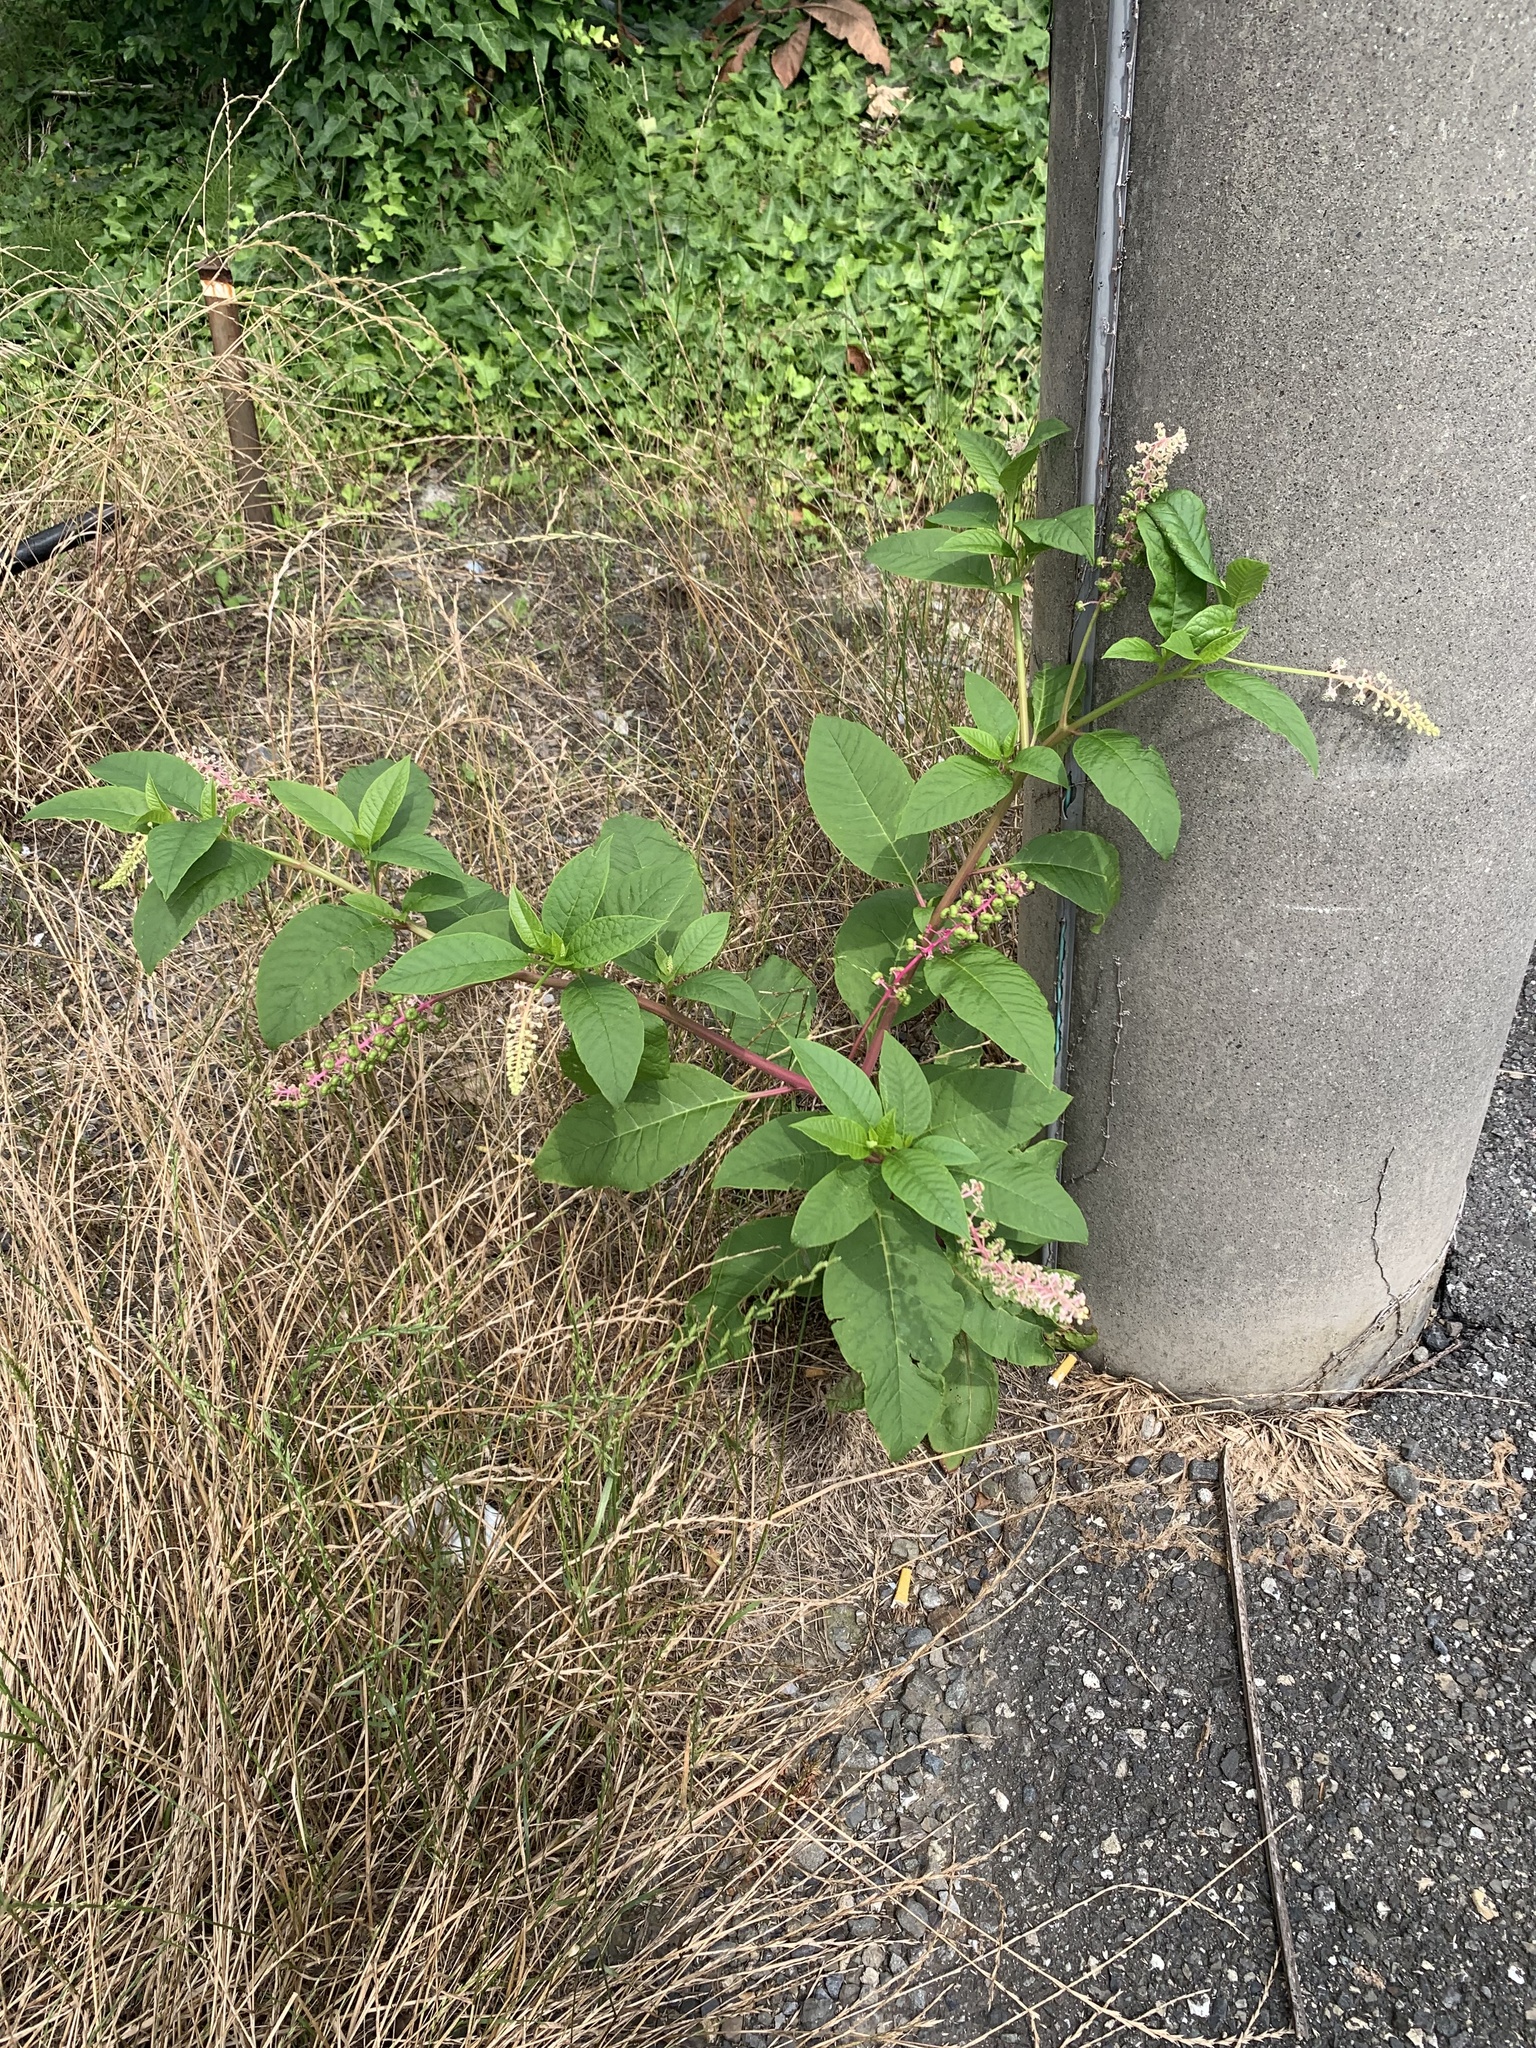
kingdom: Plantae
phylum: Tracheophyta
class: Magnoliopsida
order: Caryophyllales
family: Phytolaccaceae
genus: Phytolacca
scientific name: Phytolacca americana
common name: American pokeweed
